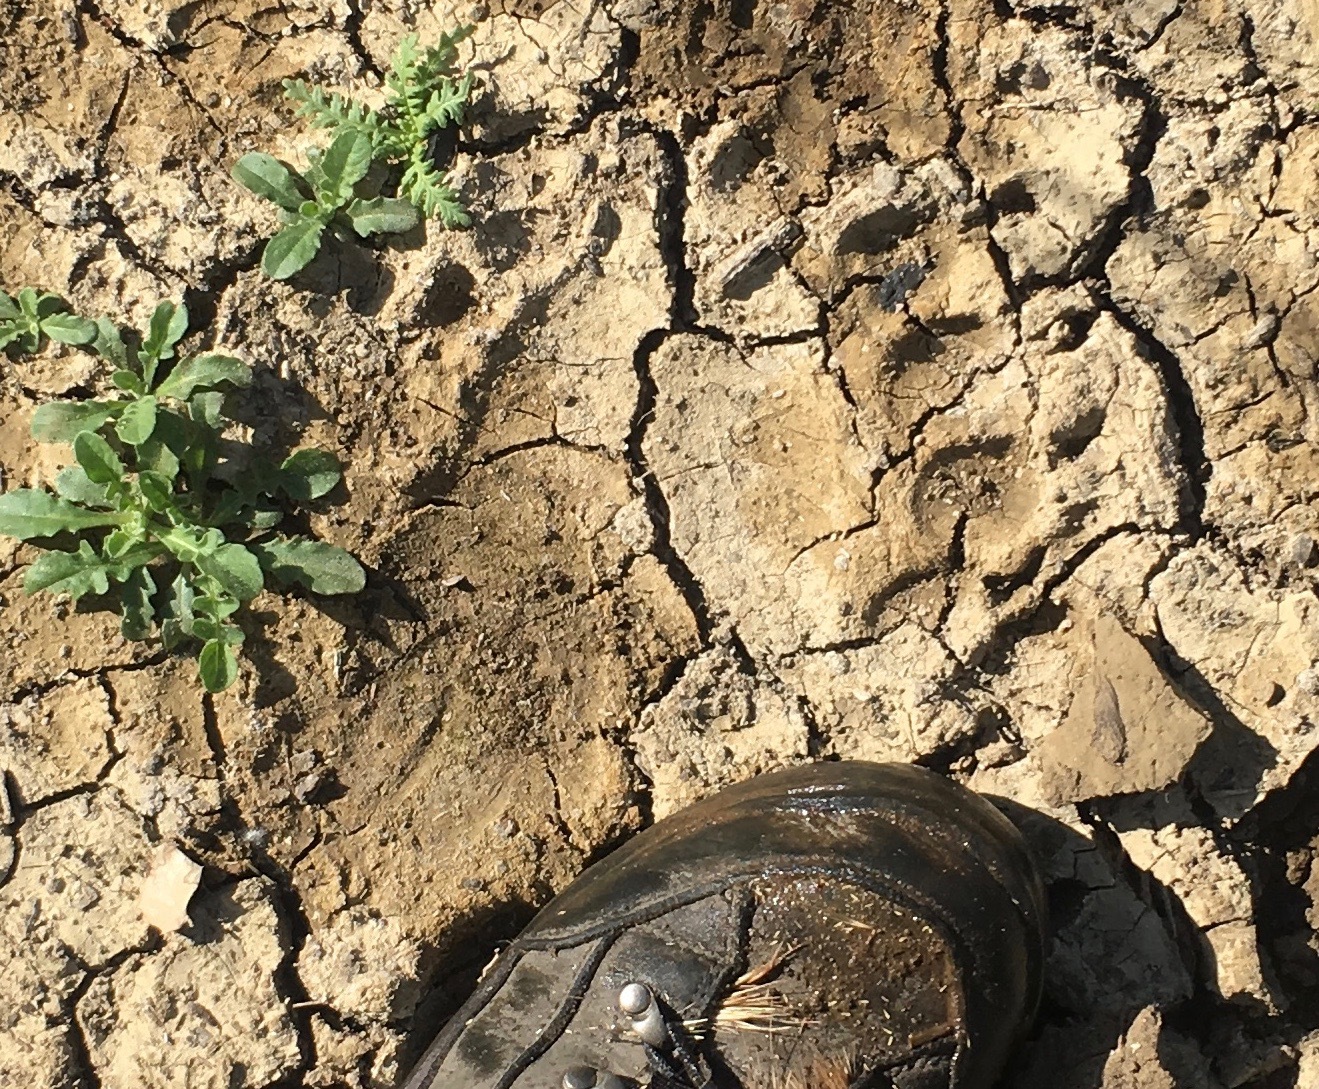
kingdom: Animalia
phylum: Chordata
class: Mammalia
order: Carnivora
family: Ursidae
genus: Ursus
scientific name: Ursus americanus
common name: American black bear
